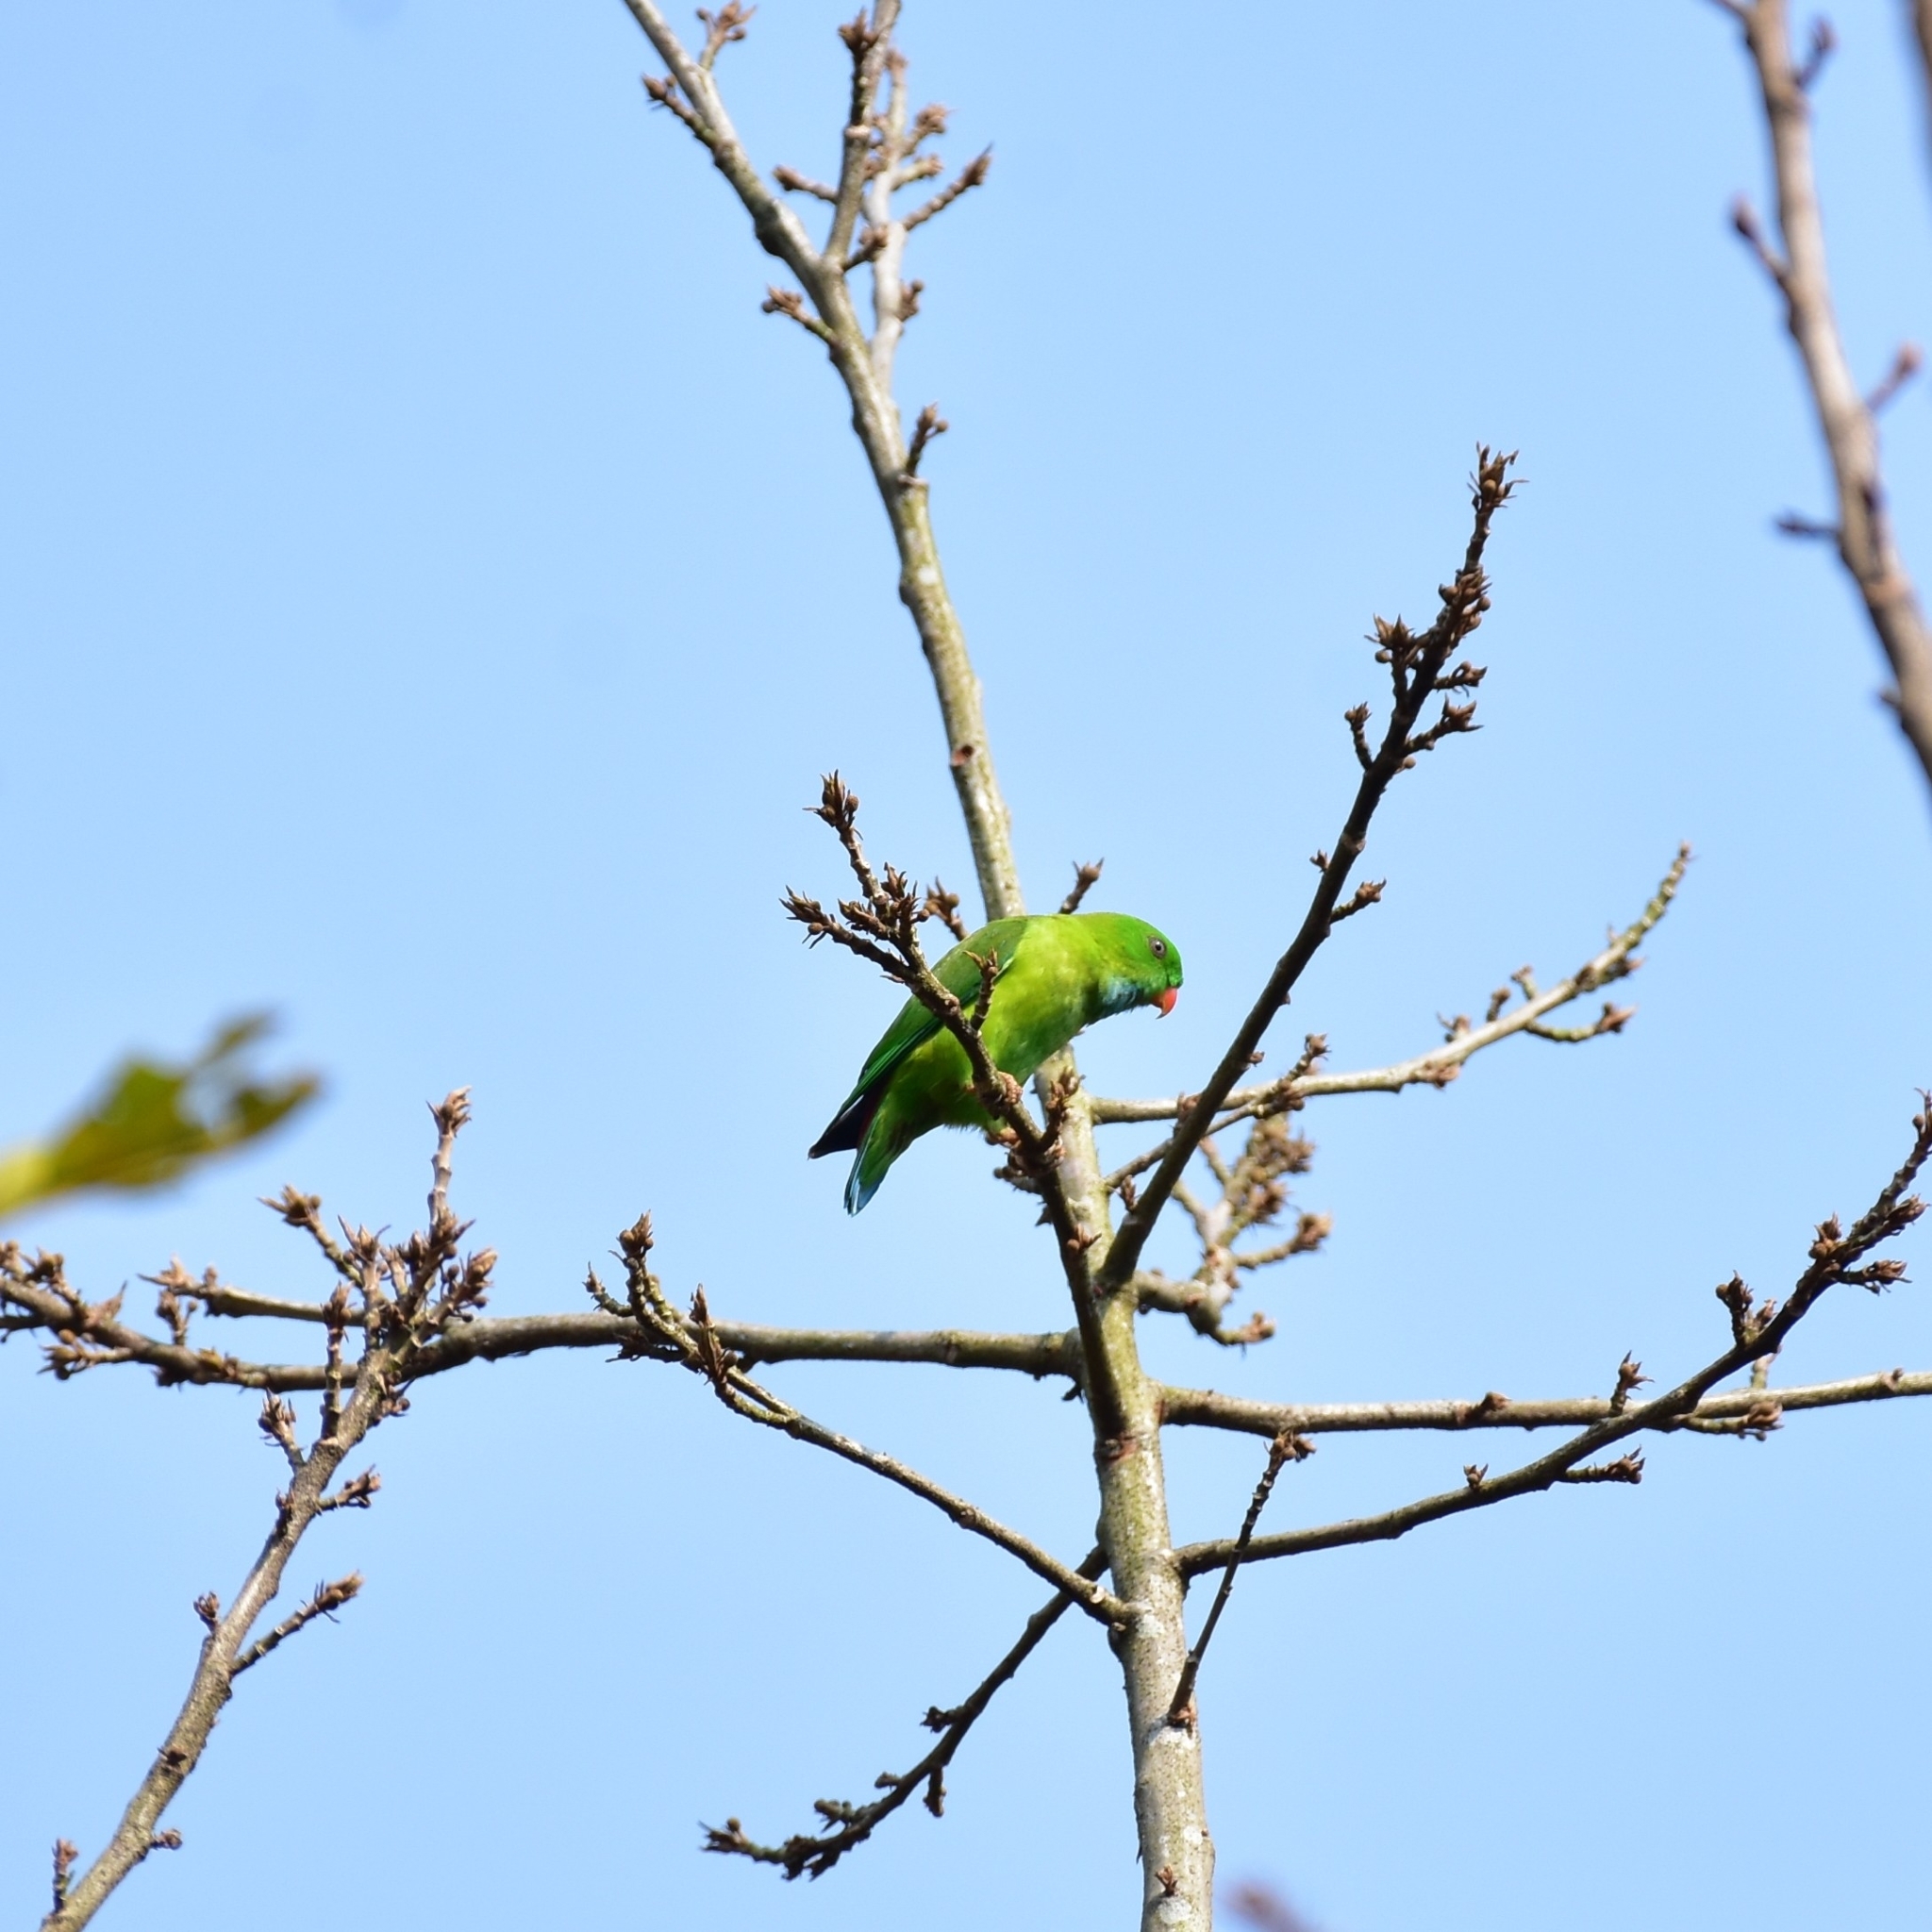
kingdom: Animalia
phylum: Chordata
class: Aves
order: Psittaciformes
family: Psittacidae
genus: Loriculus
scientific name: Loriculus vernalis
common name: Vernal hanging parrot
